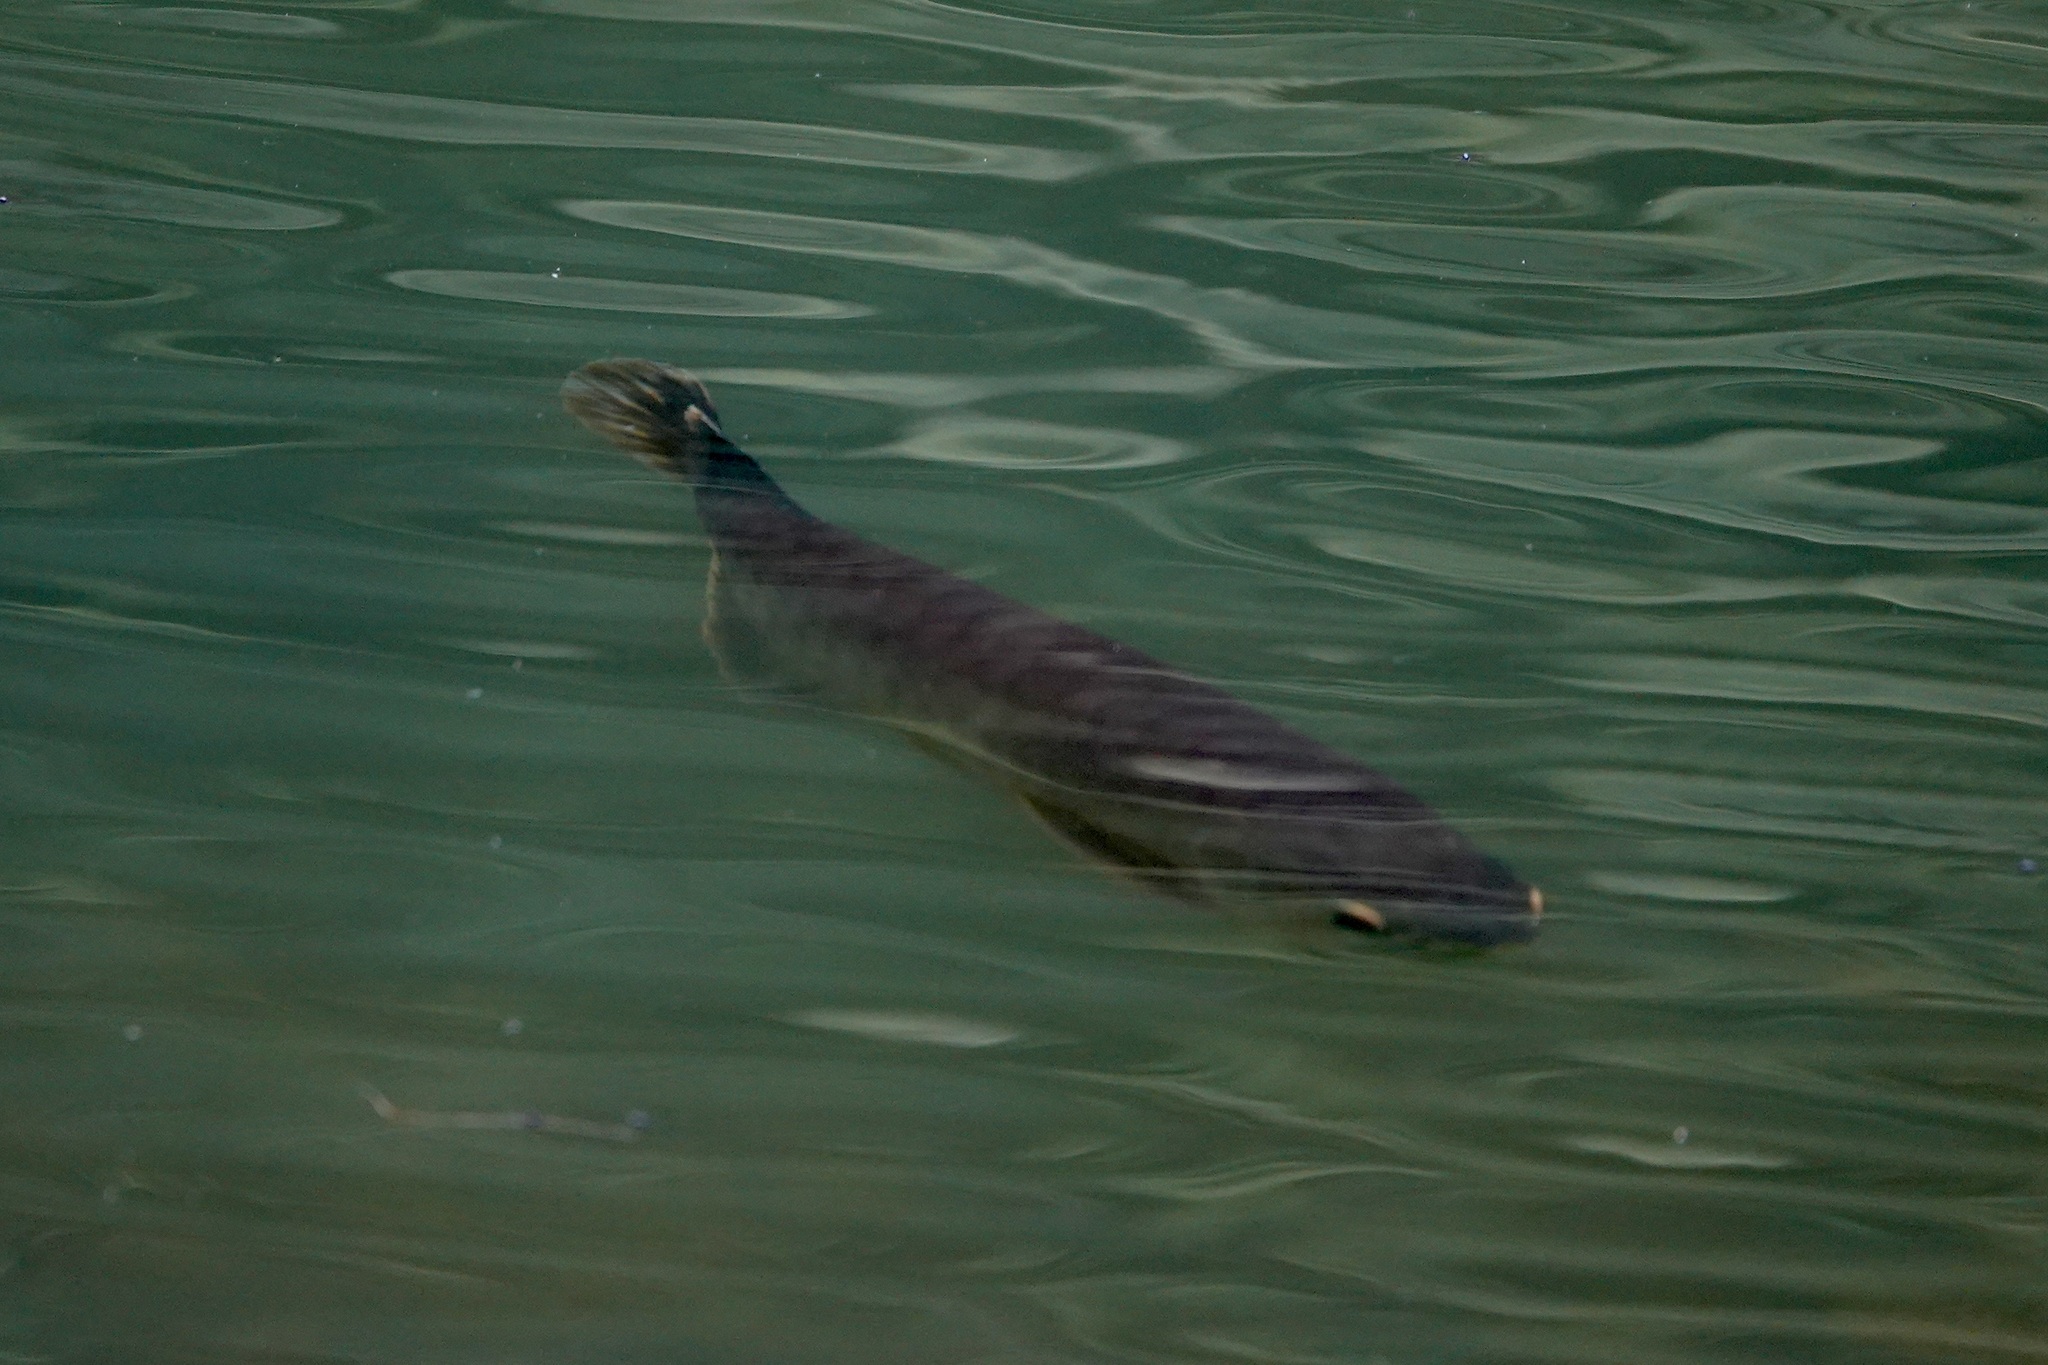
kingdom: Animalia
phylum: Chordata
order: Osteoglossiformes
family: Osteoglossidae
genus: Scleropages
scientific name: Scleropages formosus
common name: Asian bonytongue
